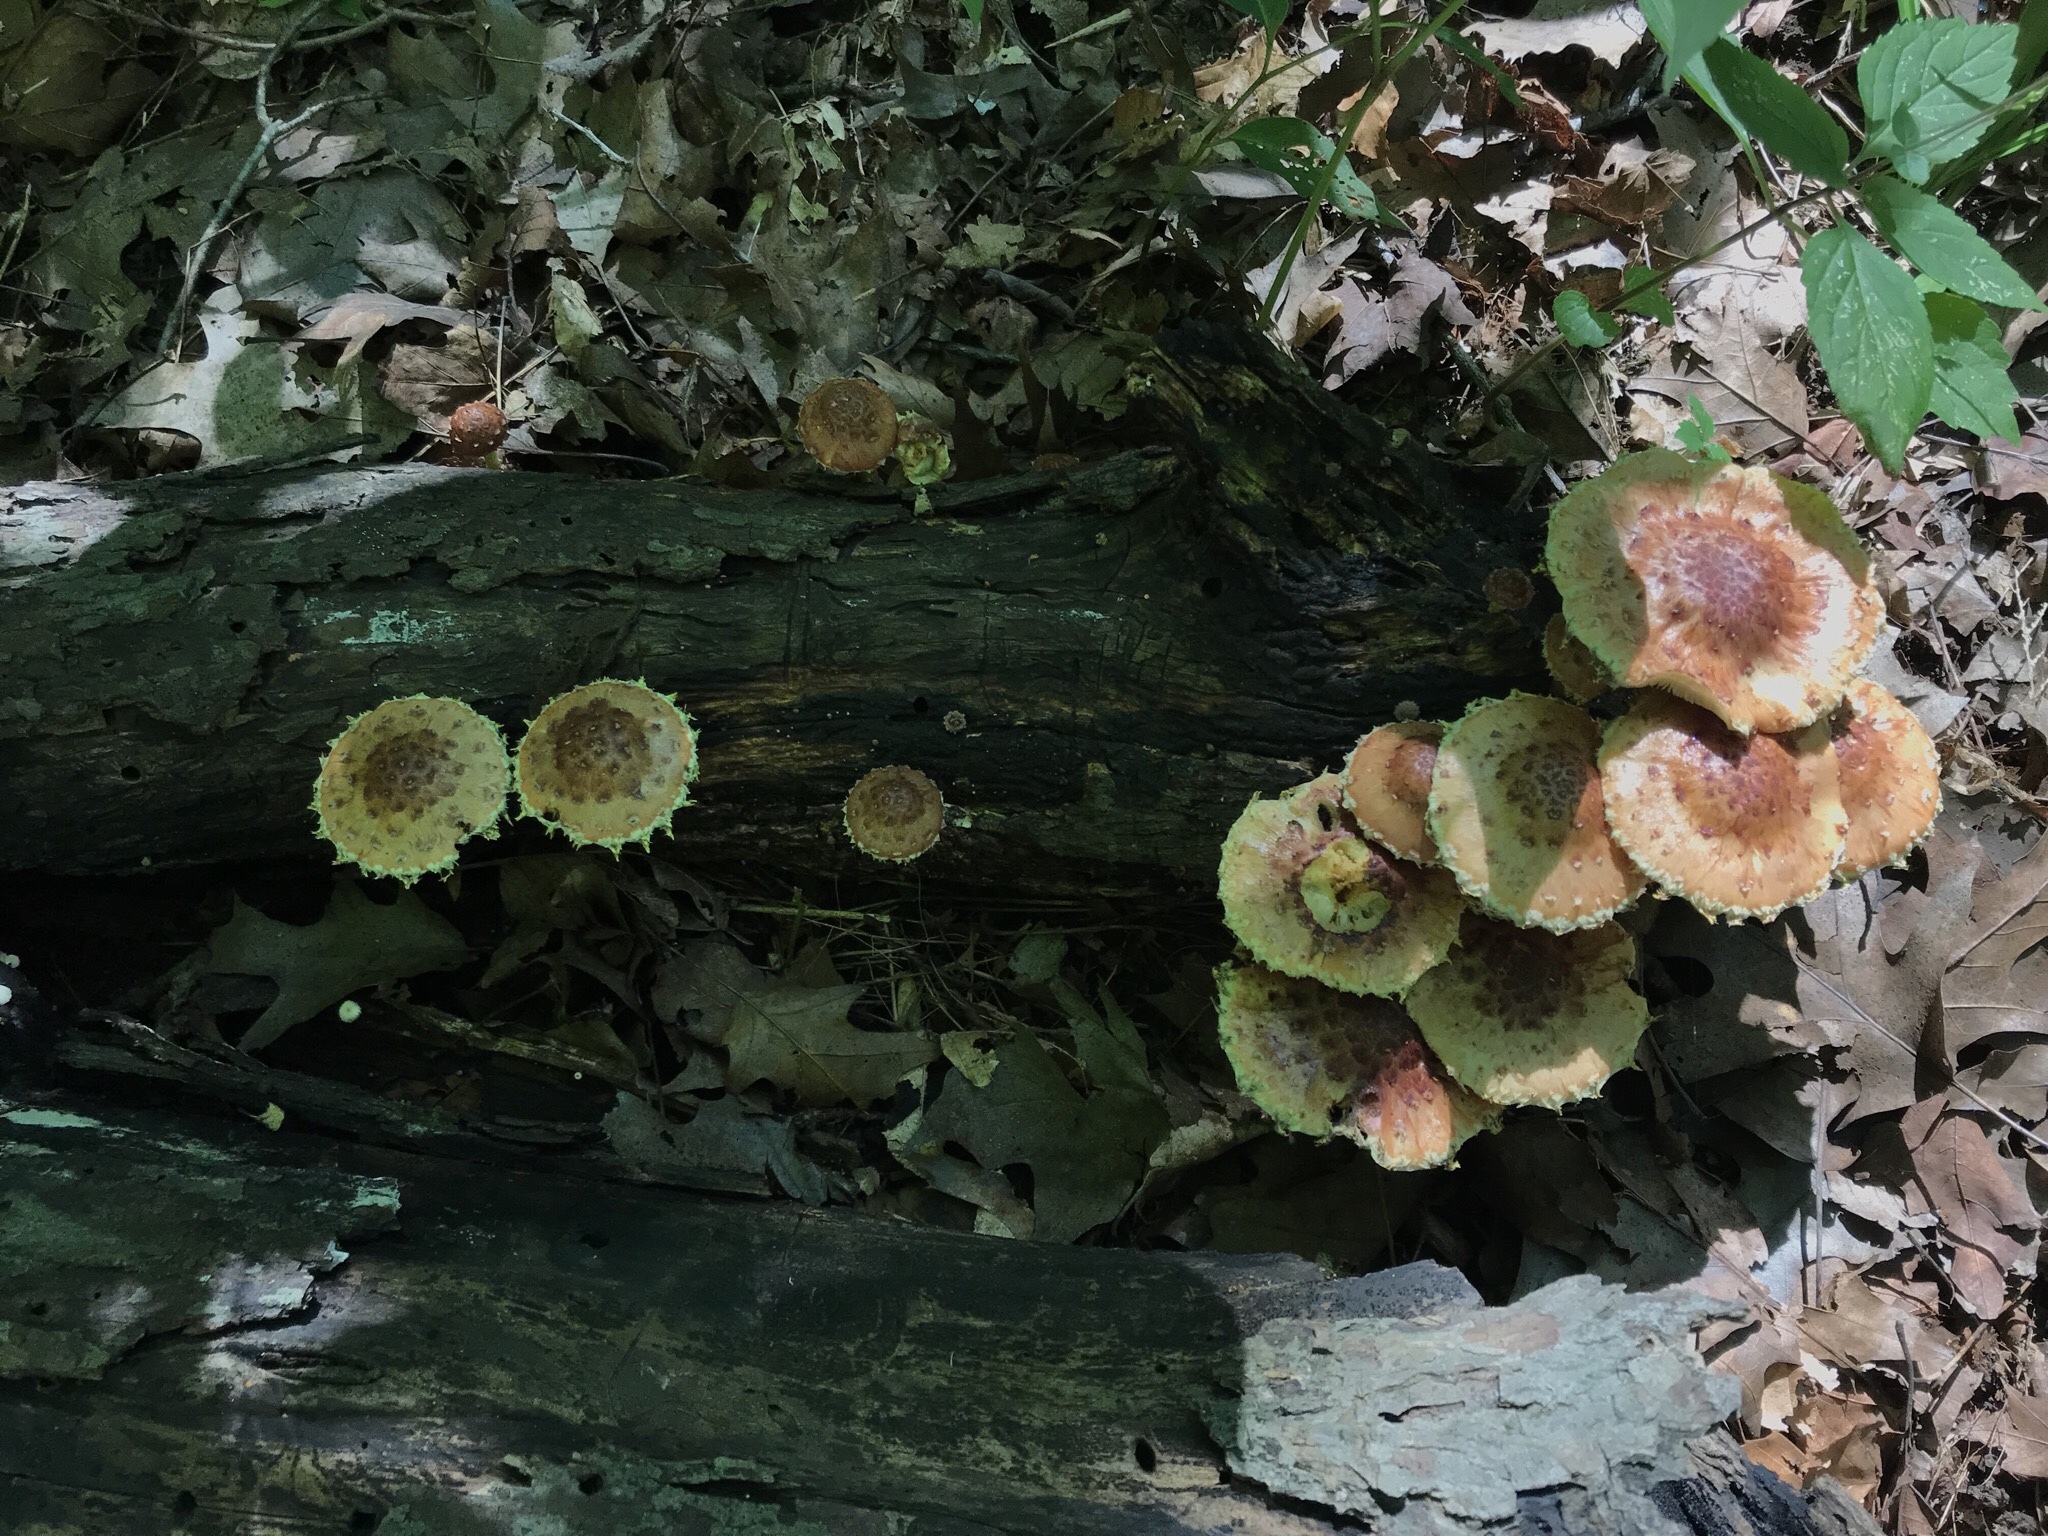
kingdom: Fungi
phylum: Basidiomycota
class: Agaricomycetes
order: Agaricales
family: Strophariaceae
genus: Pholiota
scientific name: Pholiota polychroa
